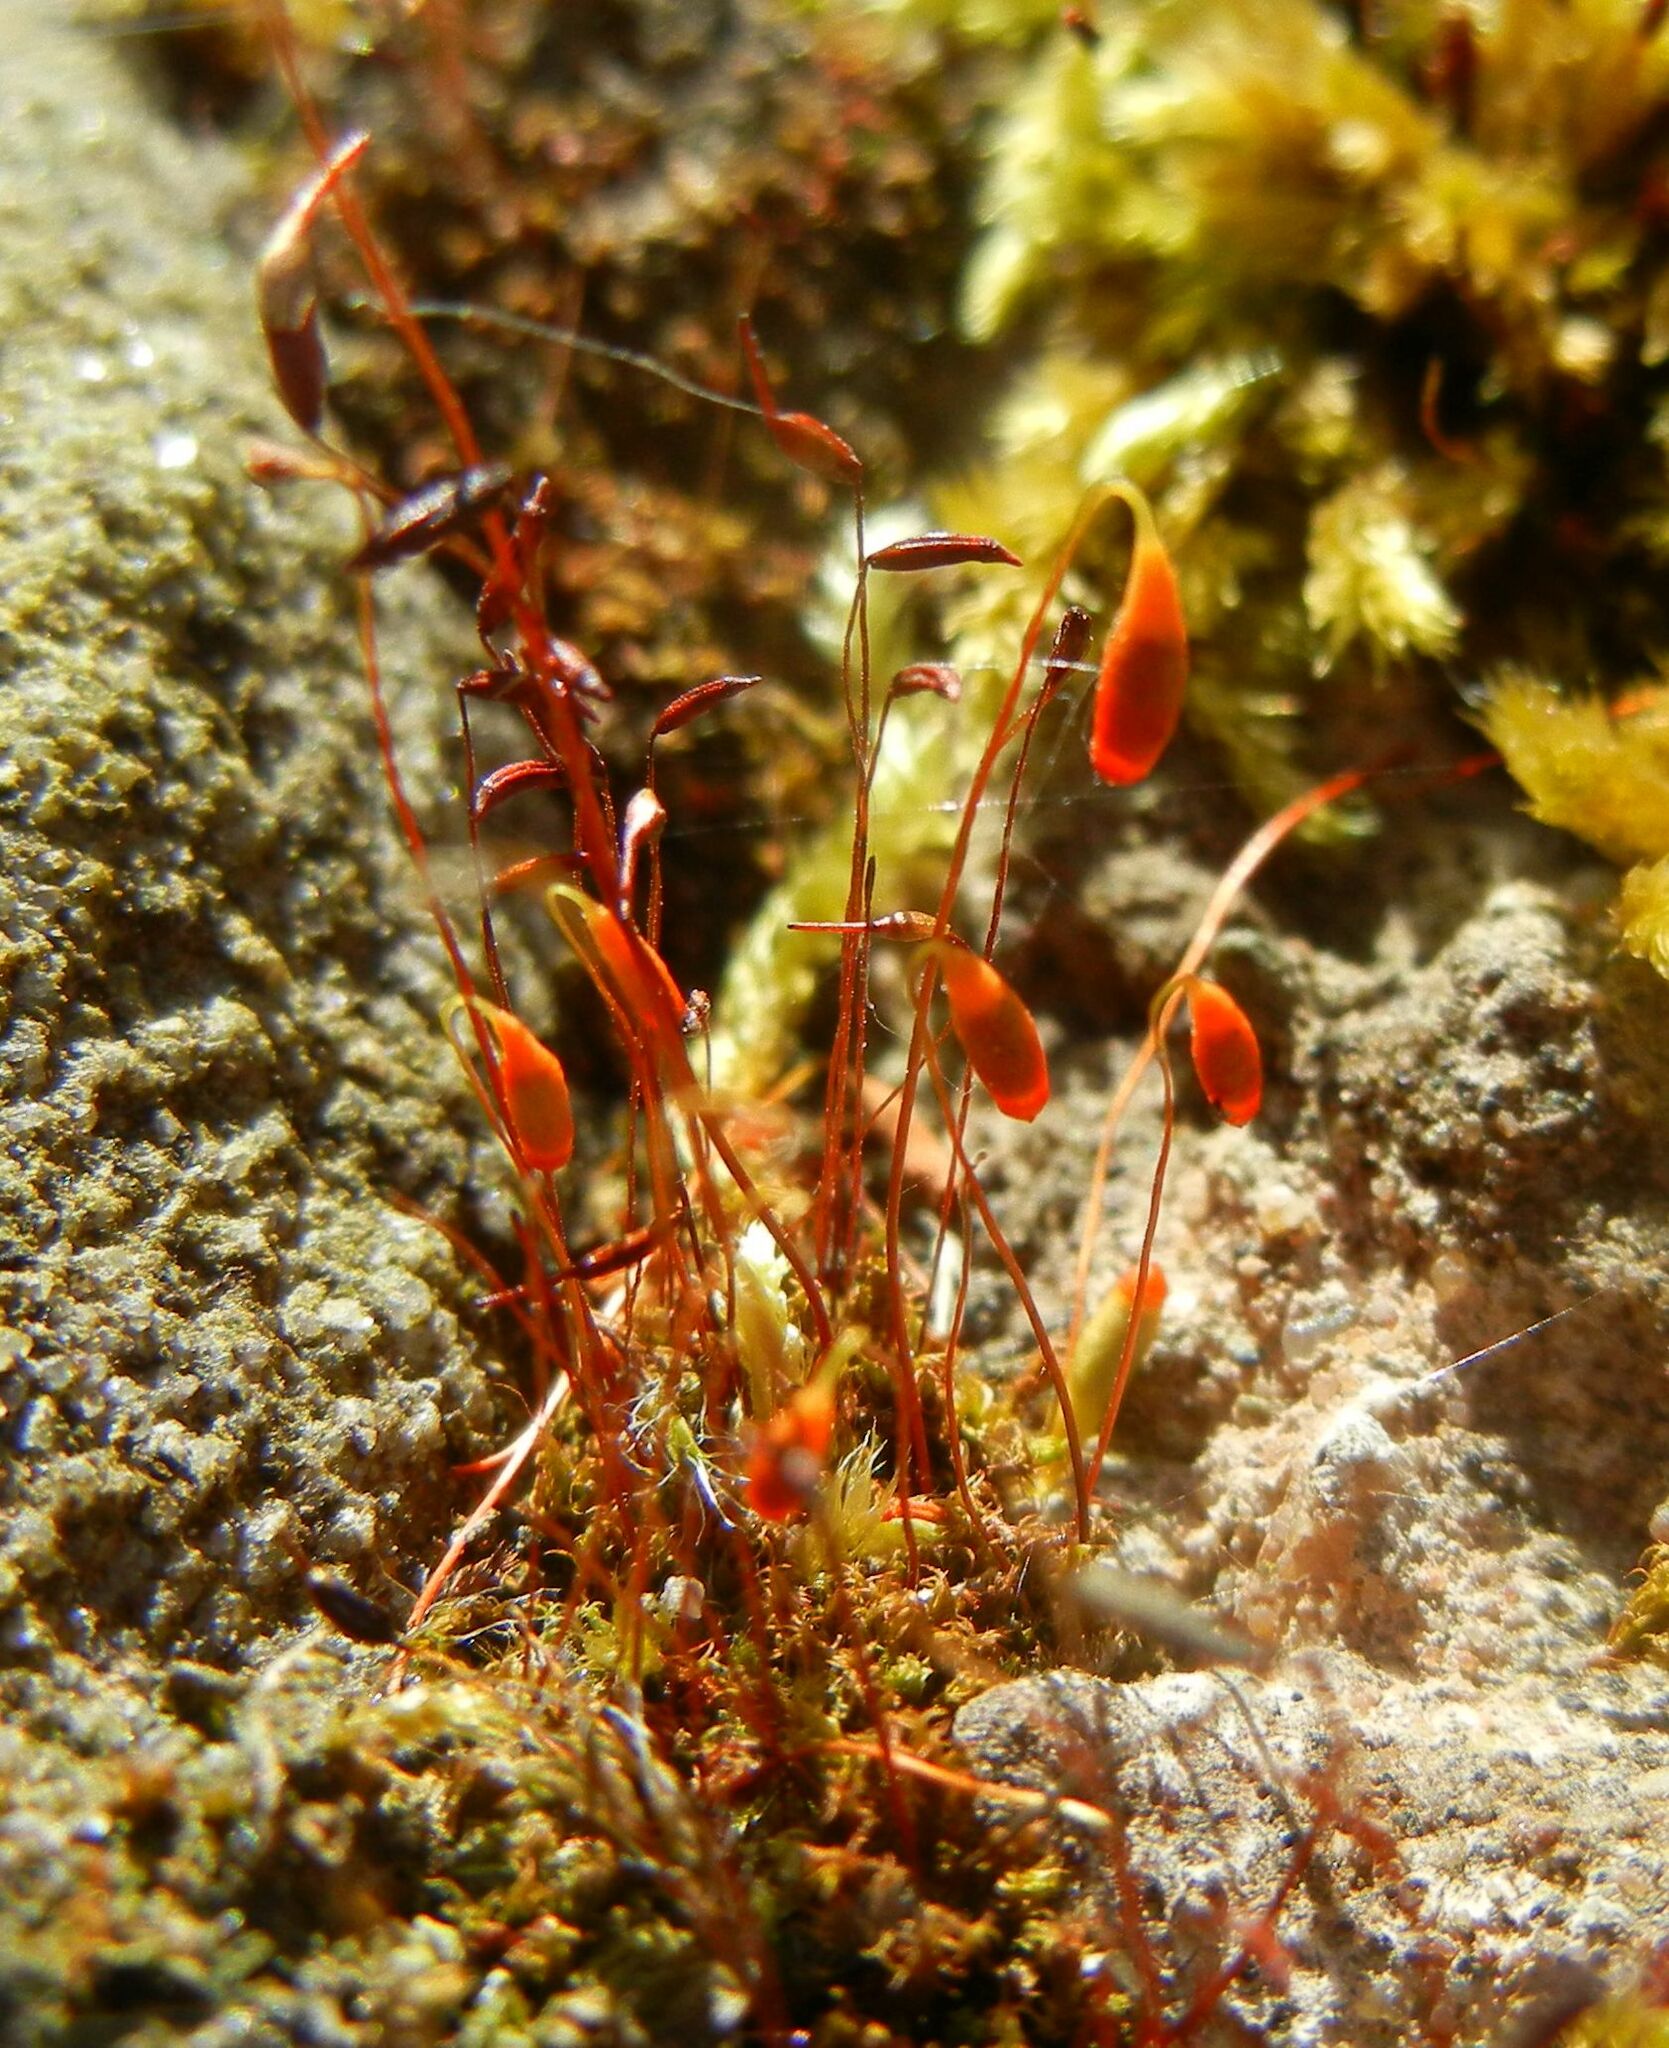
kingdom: Plantae
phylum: Bryophyta
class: Bryopsida
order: Bryales
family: Bryaceae
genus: Rosulabryum
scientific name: Rosulabryum capillare
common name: Capillary thread-moss
